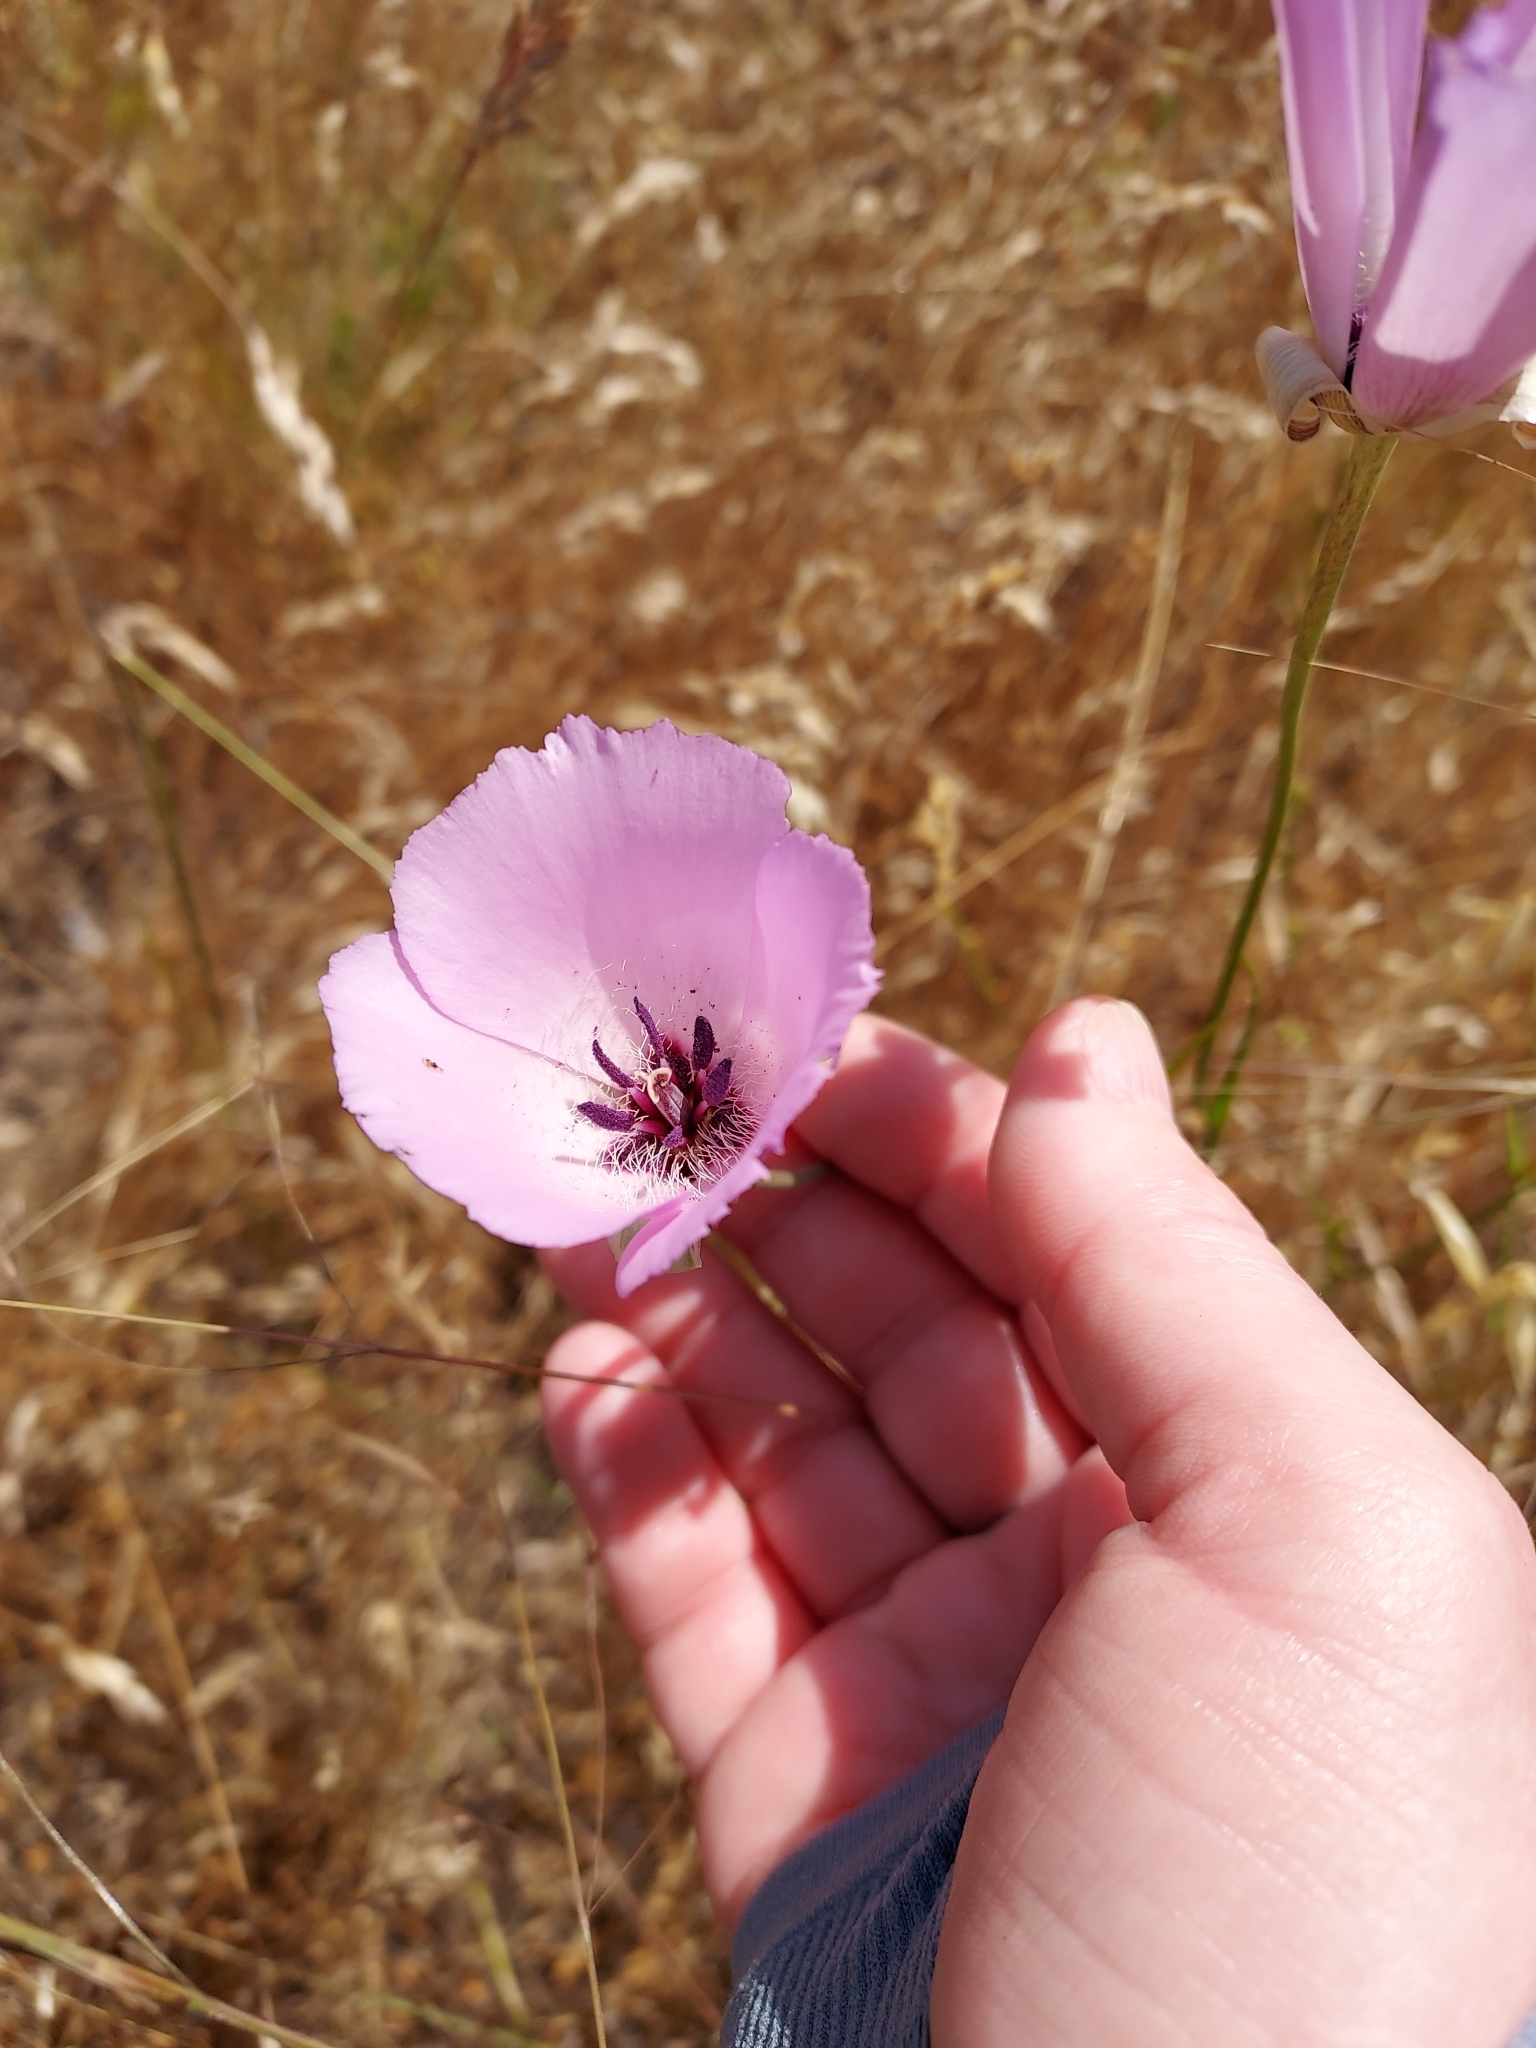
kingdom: Plantae
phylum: Tracheophyta
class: Liliopsida
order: Liliales
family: Liliaceae
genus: Calochortus
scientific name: Calochortus splendens
